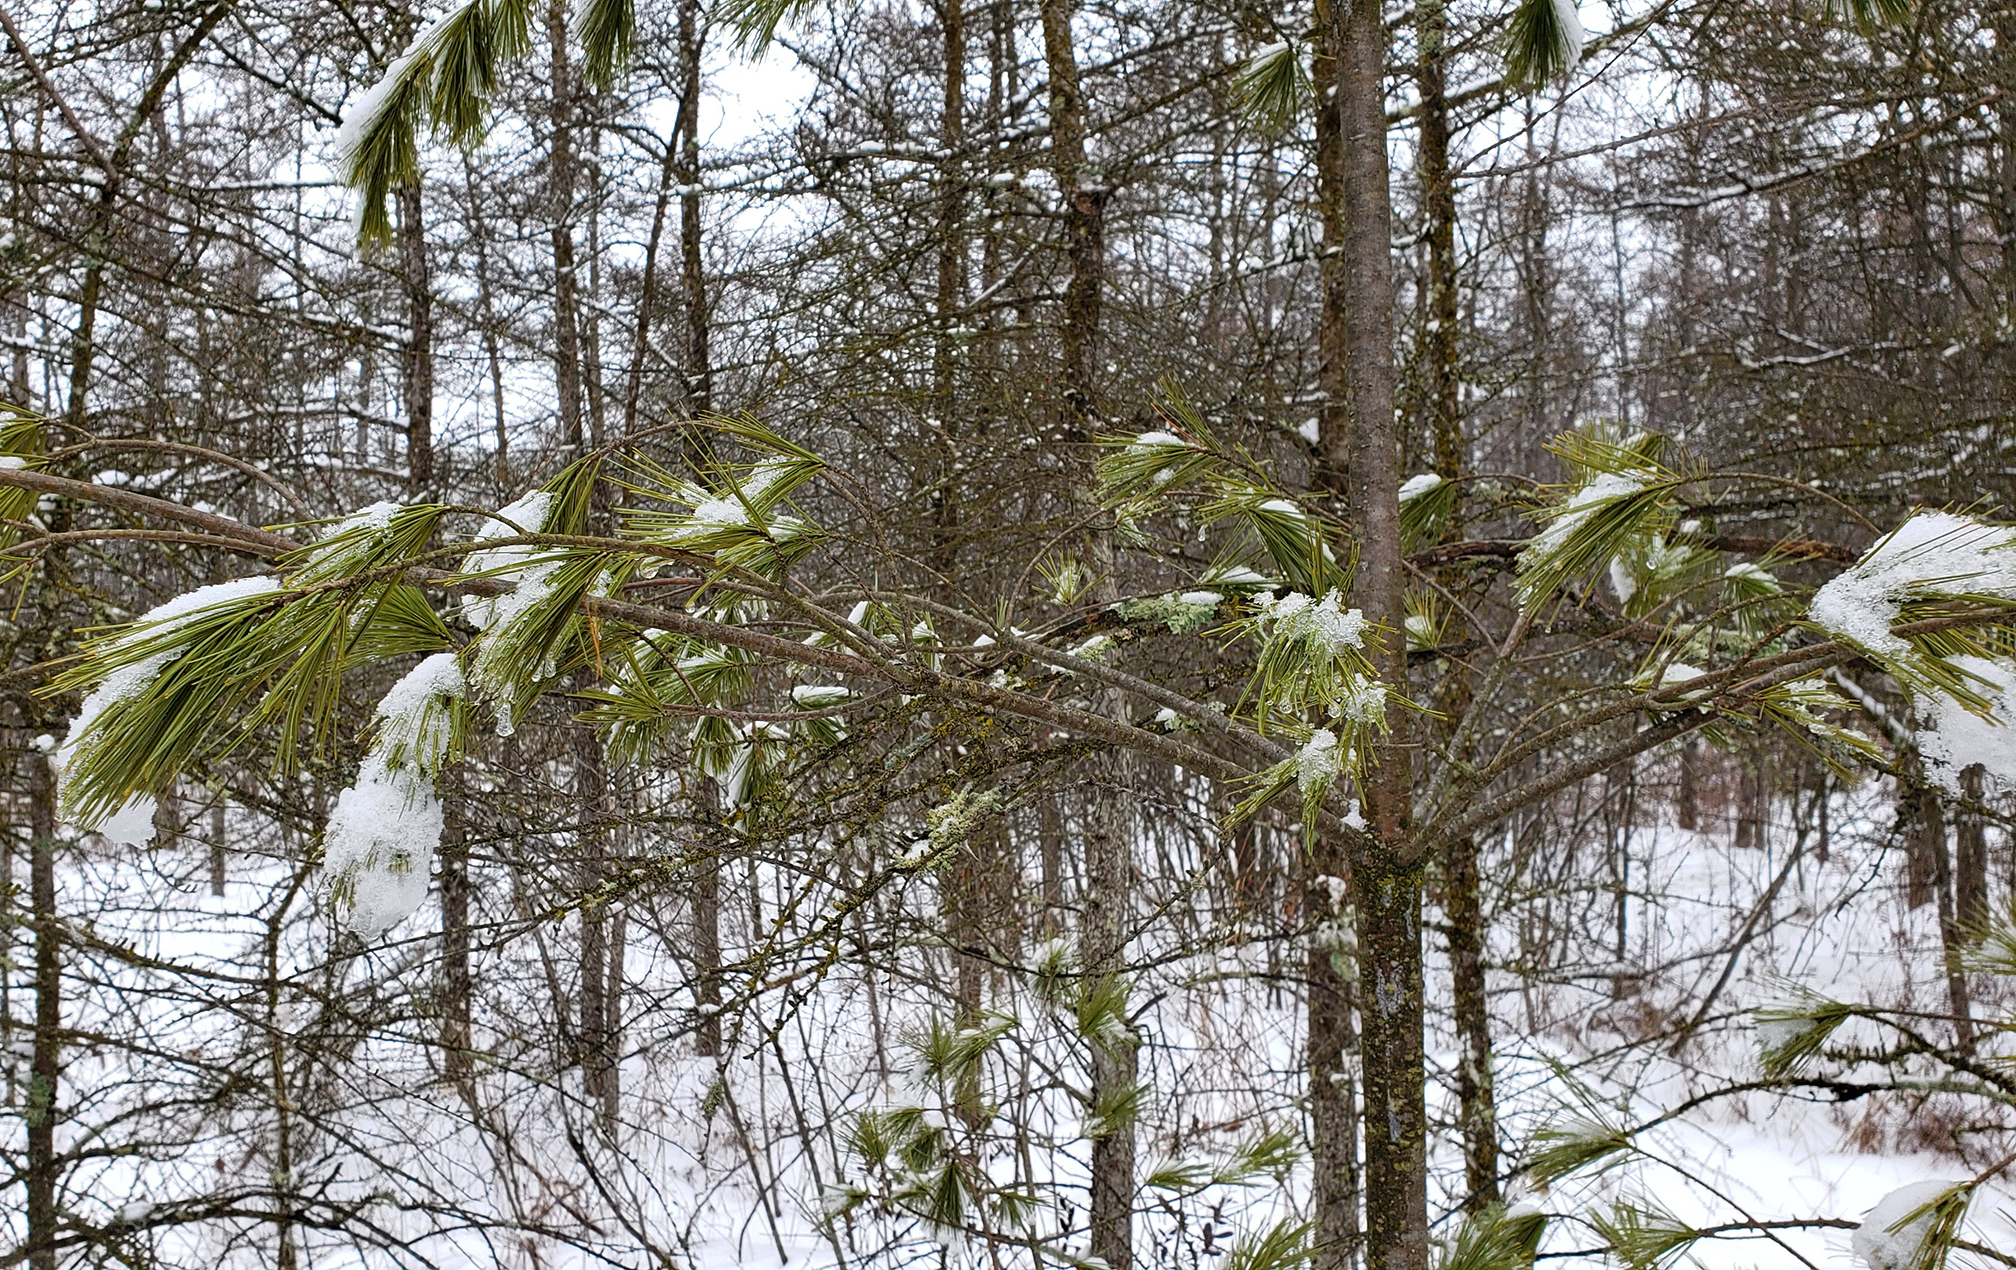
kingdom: Plantae
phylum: Tracheophyta
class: Pinopsida
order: Pinales
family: Pinaceae
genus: Pinus
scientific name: Pinus strobus
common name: Weymouth pine
